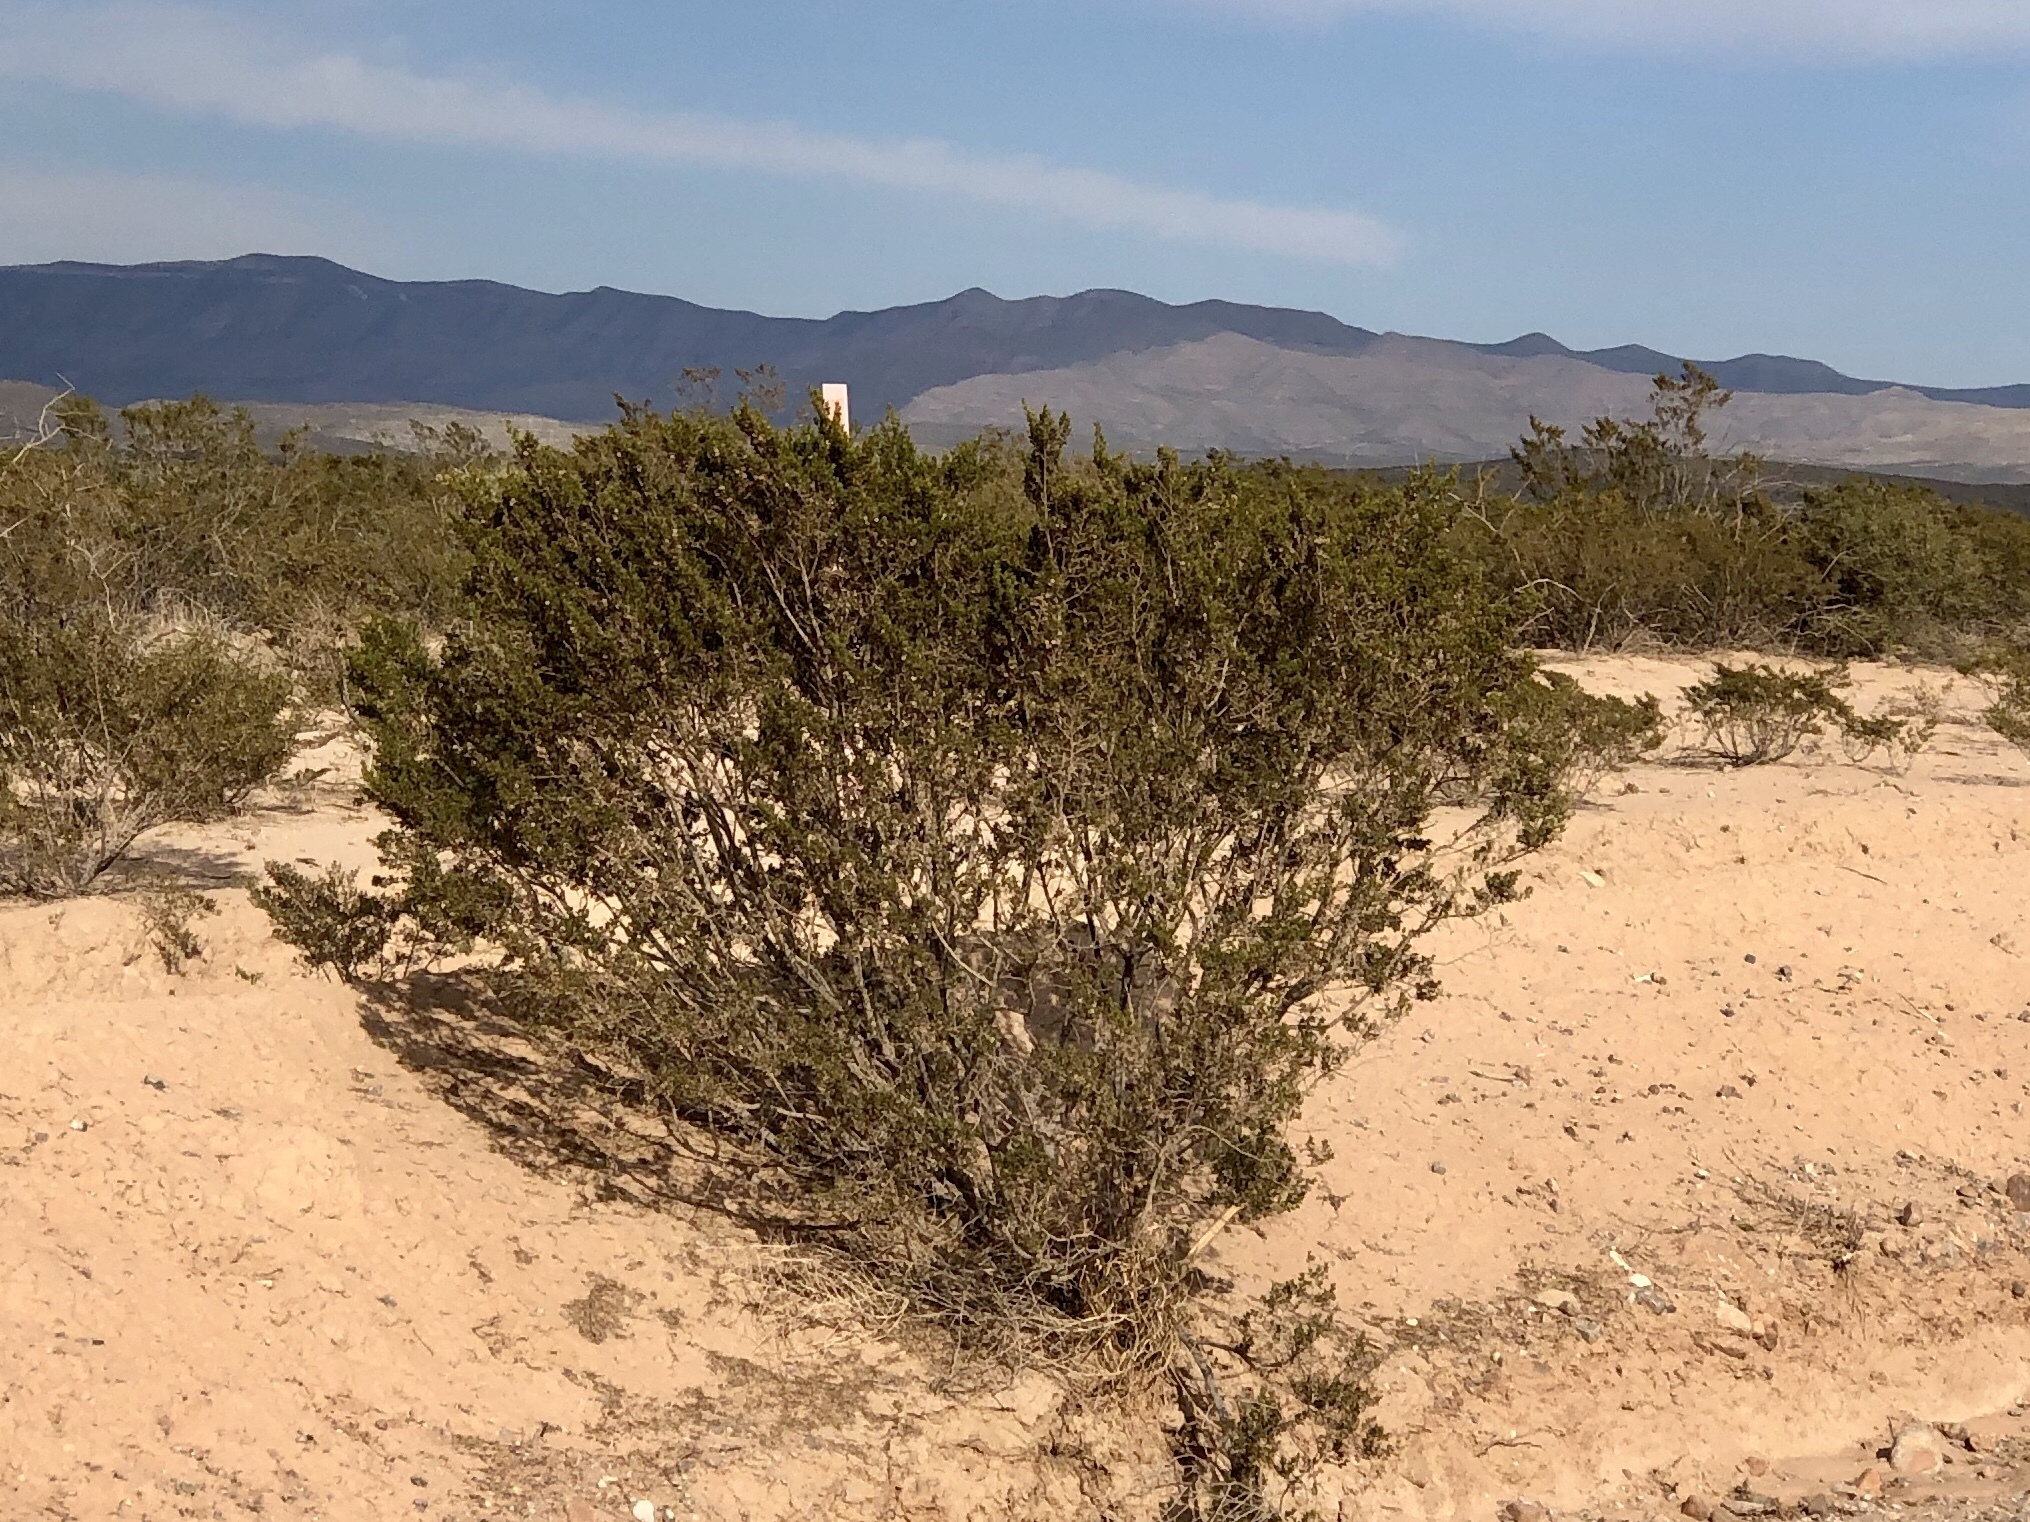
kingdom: Plantae
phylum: Tracheophyta
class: Magnoliopsida
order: Zygophyllales
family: Zygophyllaceae
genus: Larrea
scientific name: Larrea tridentata
